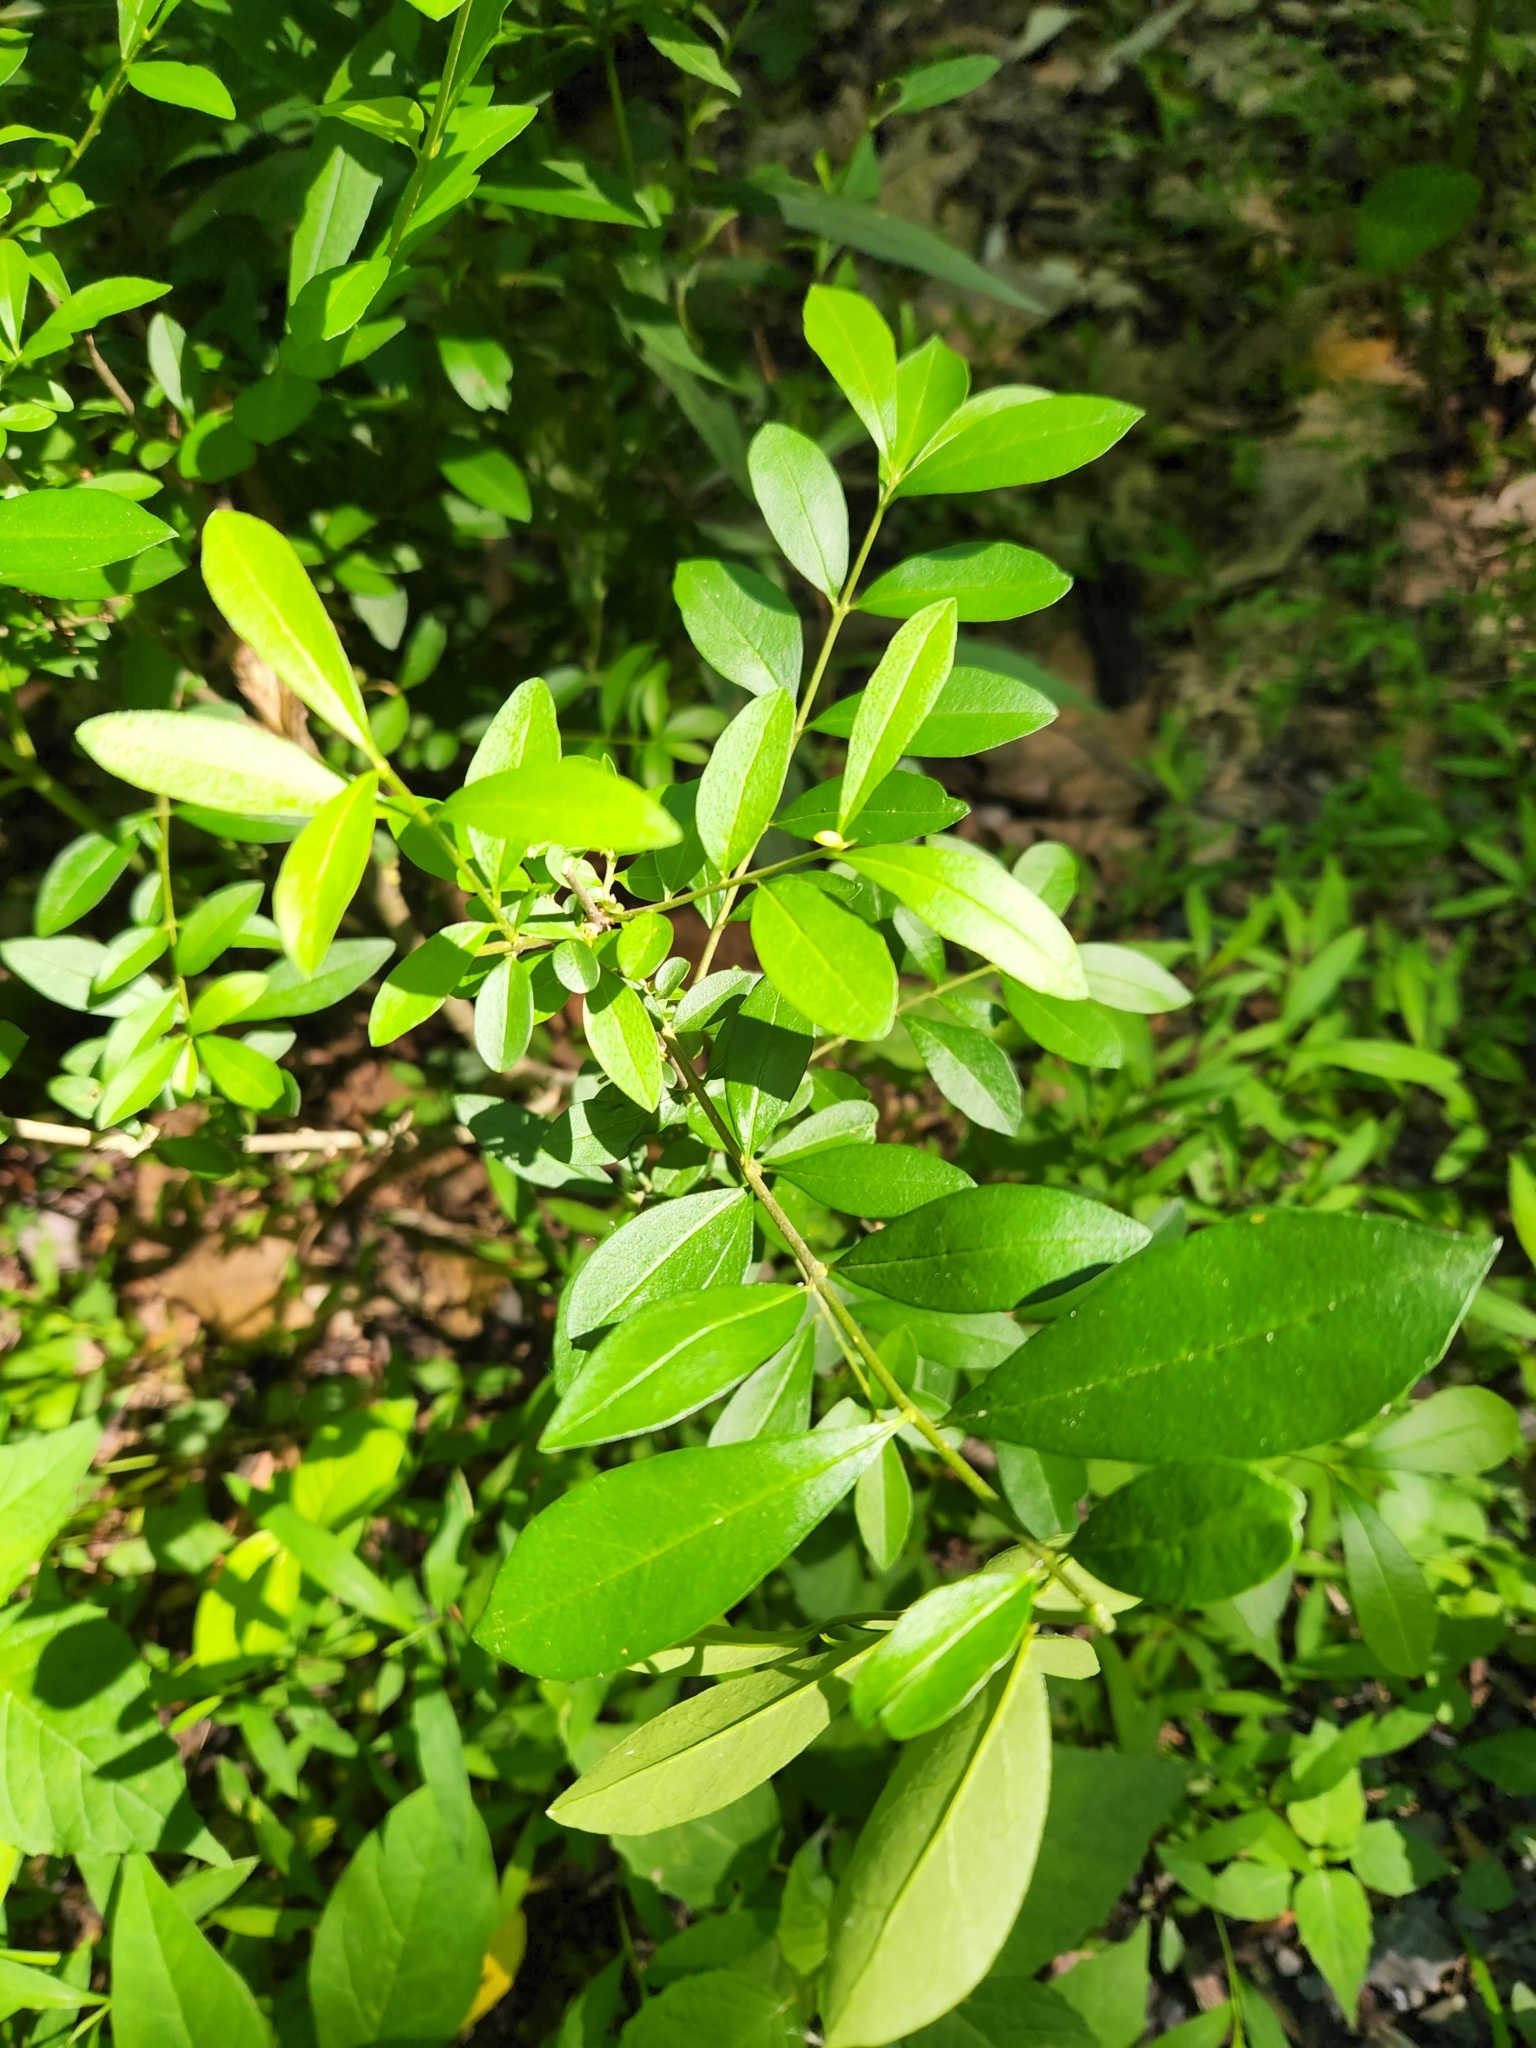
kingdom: Plantae
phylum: Tracheophyta
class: Magnoliopsida
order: Lamiales
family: Oleaceae
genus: Ligustrum
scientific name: Ligustrum obtusifolium
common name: Border privet
